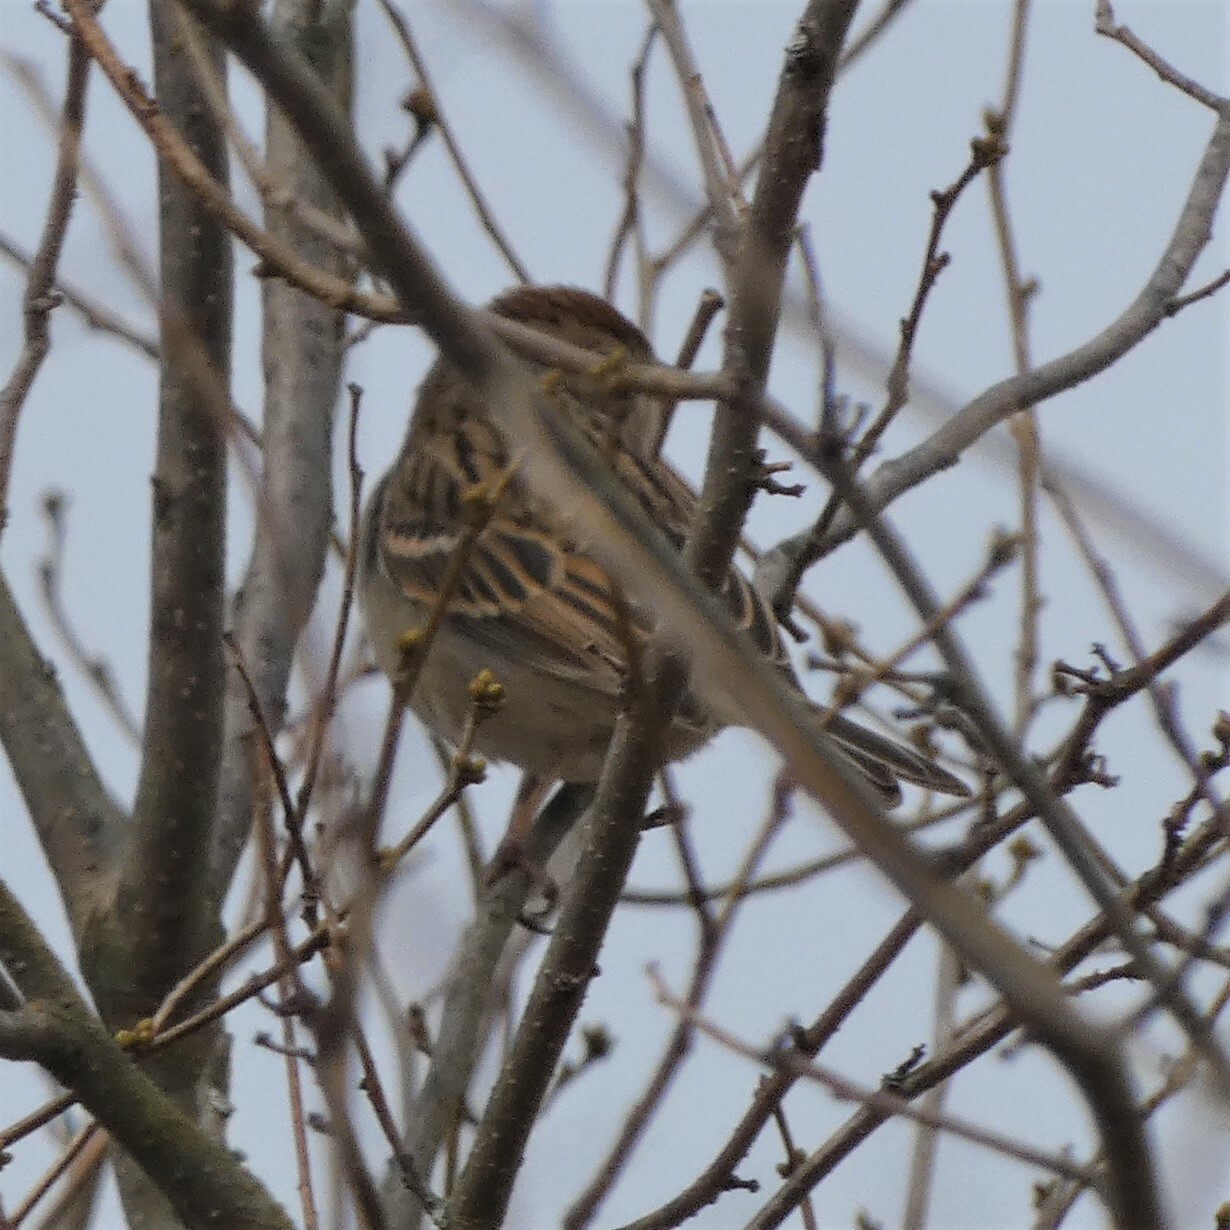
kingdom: Animalia
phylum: Chordata
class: Aves
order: Passeriformes
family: Passerellidae
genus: Spizella
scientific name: Spizella passerina
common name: Chipping sparrow
